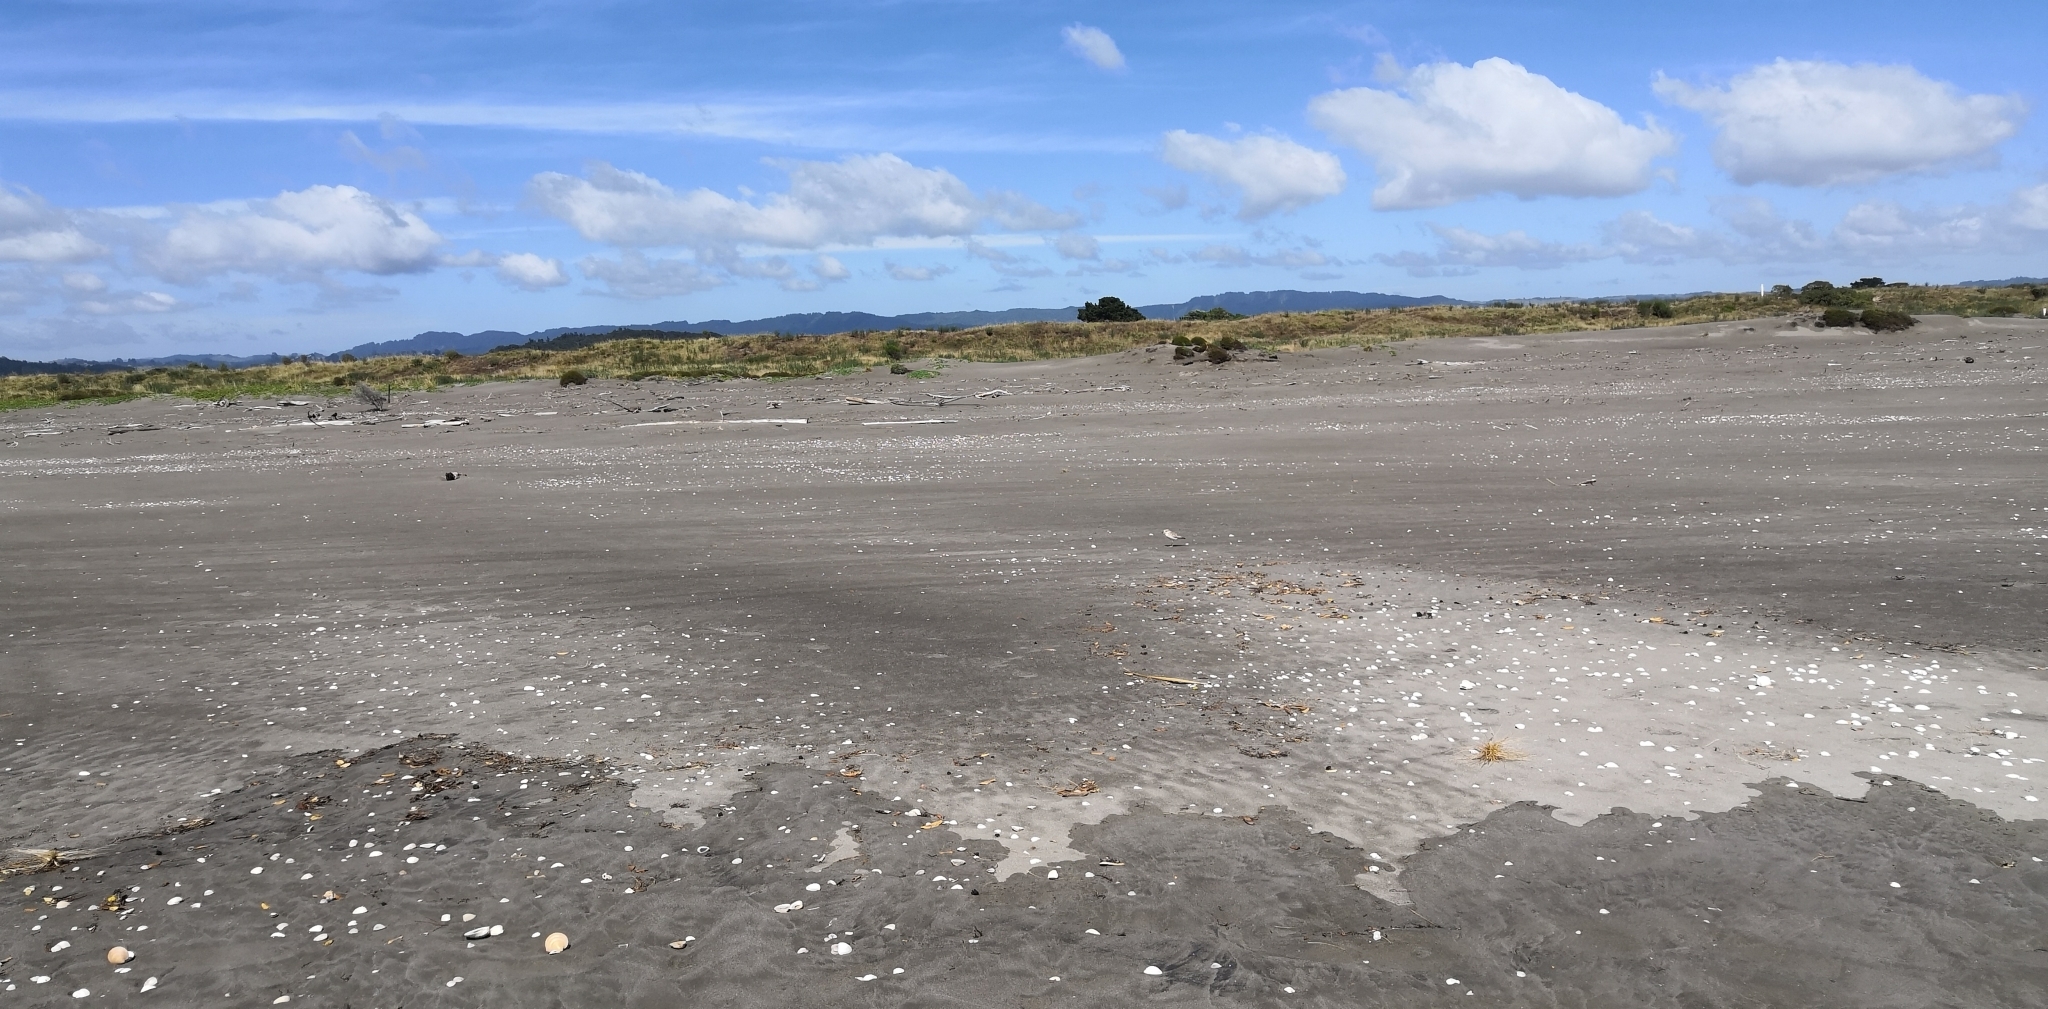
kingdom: Animalia
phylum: Chordata
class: Aves
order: Charadriiformes
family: Charadriidae
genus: Anarhynchus
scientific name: Anarhynchus
